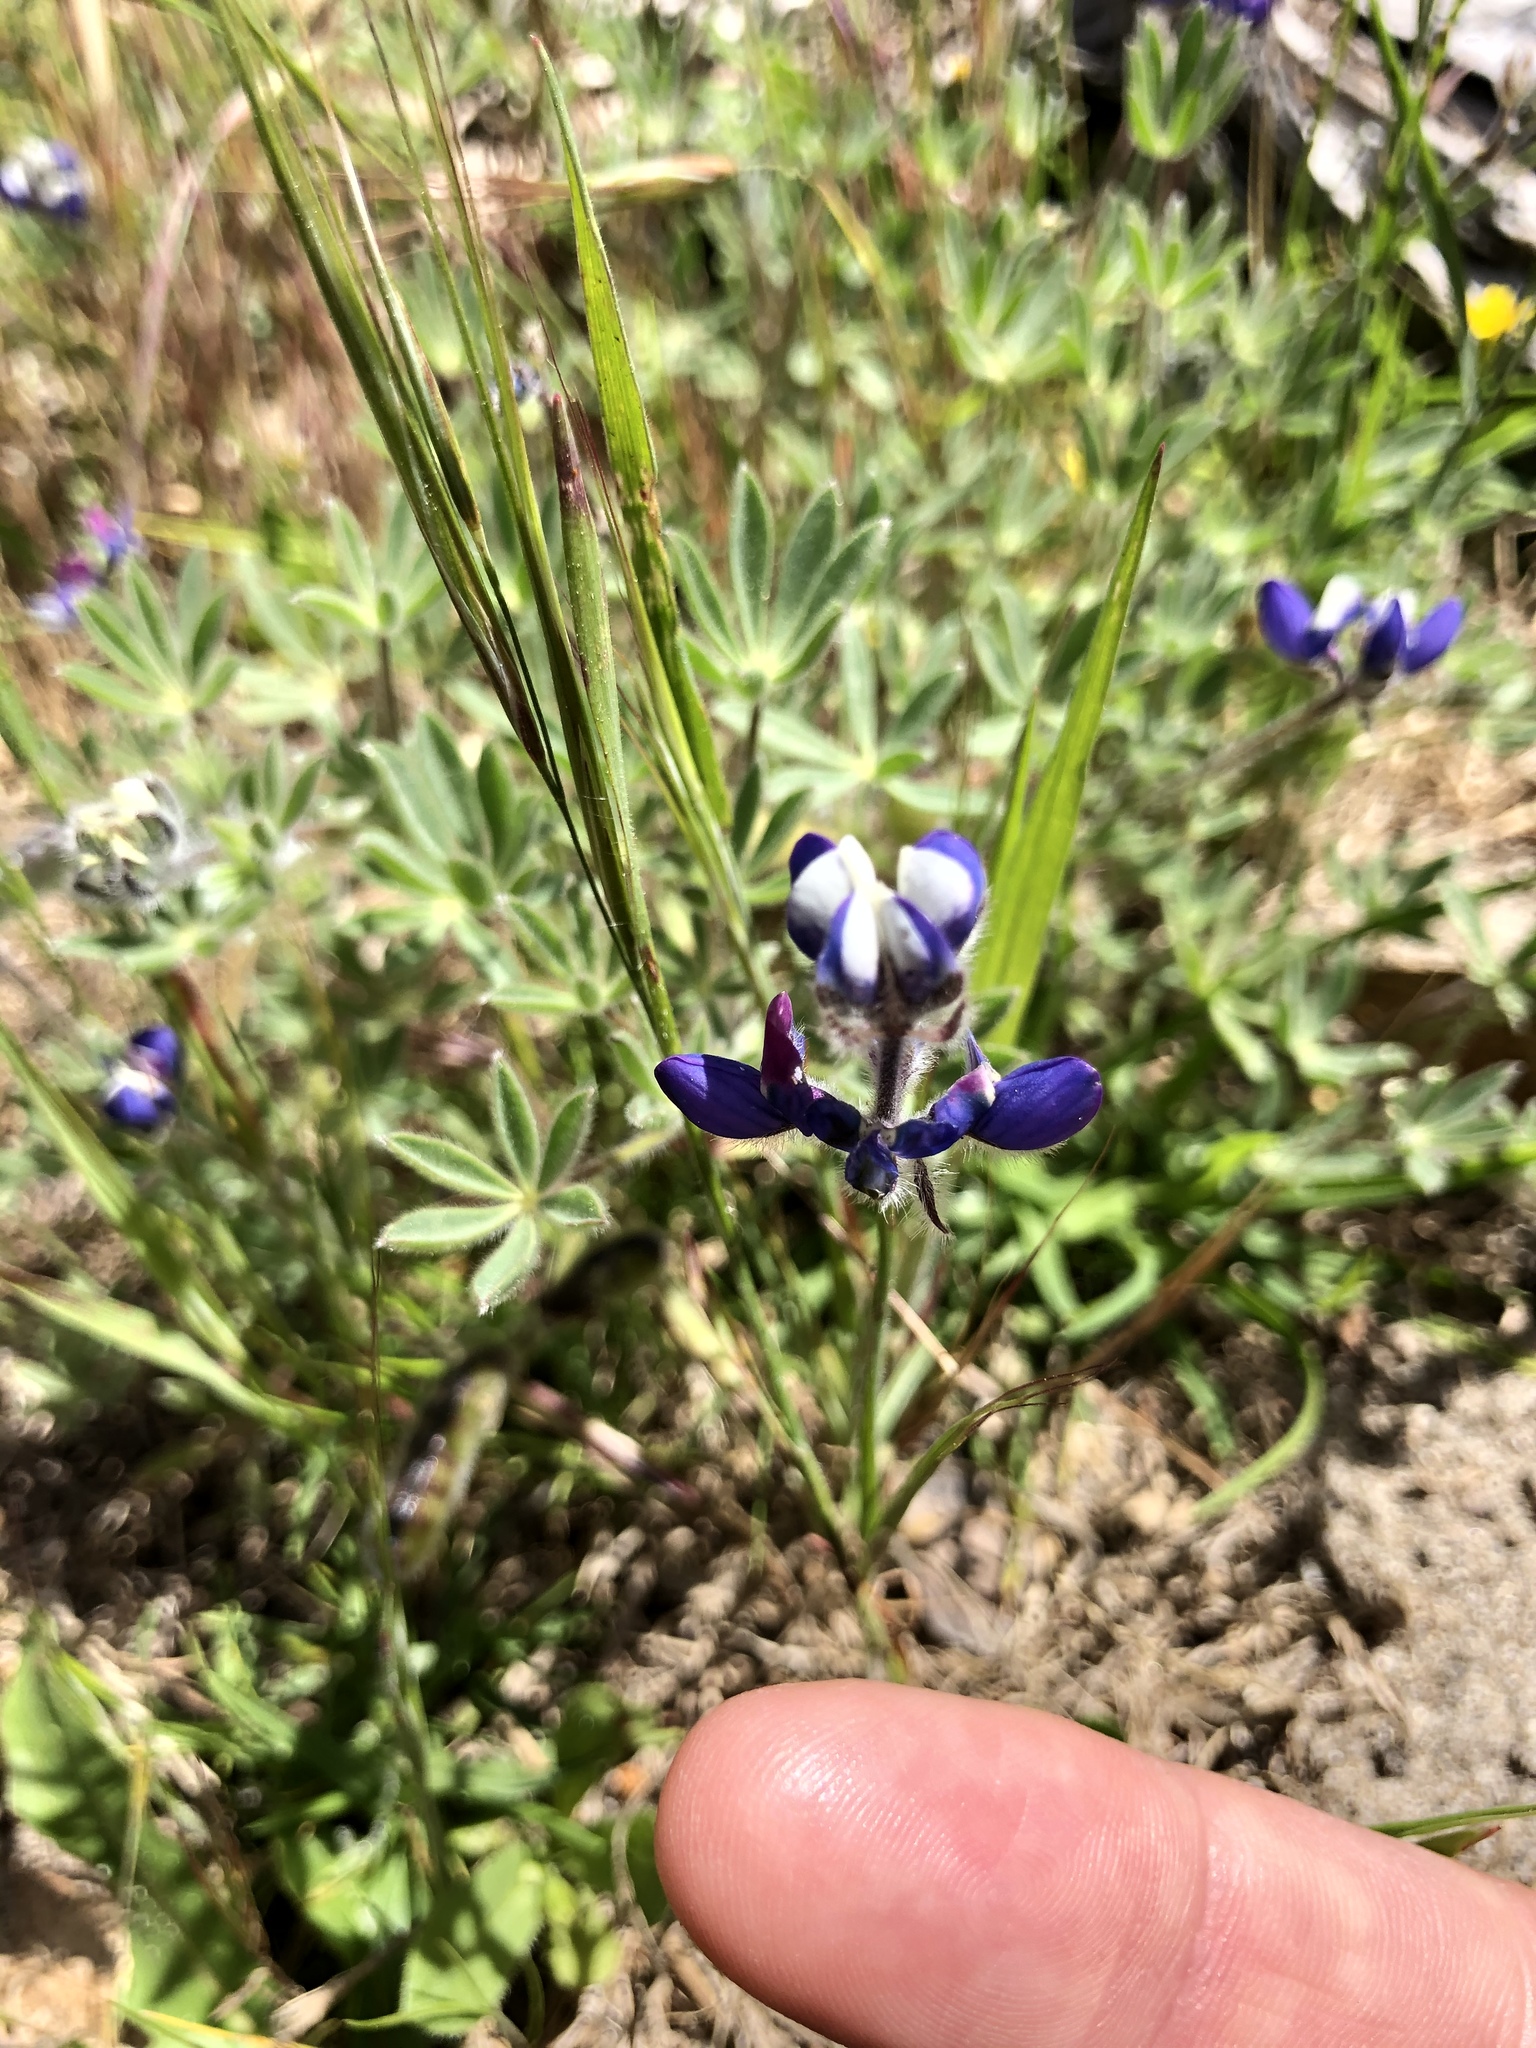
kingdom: Plantae
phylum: Tracheophyta
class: Magnoliopsida
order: Fabales
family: Fabaceae
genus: Lupinus
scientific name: Lupinus bicolor
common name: Miniature lupine
